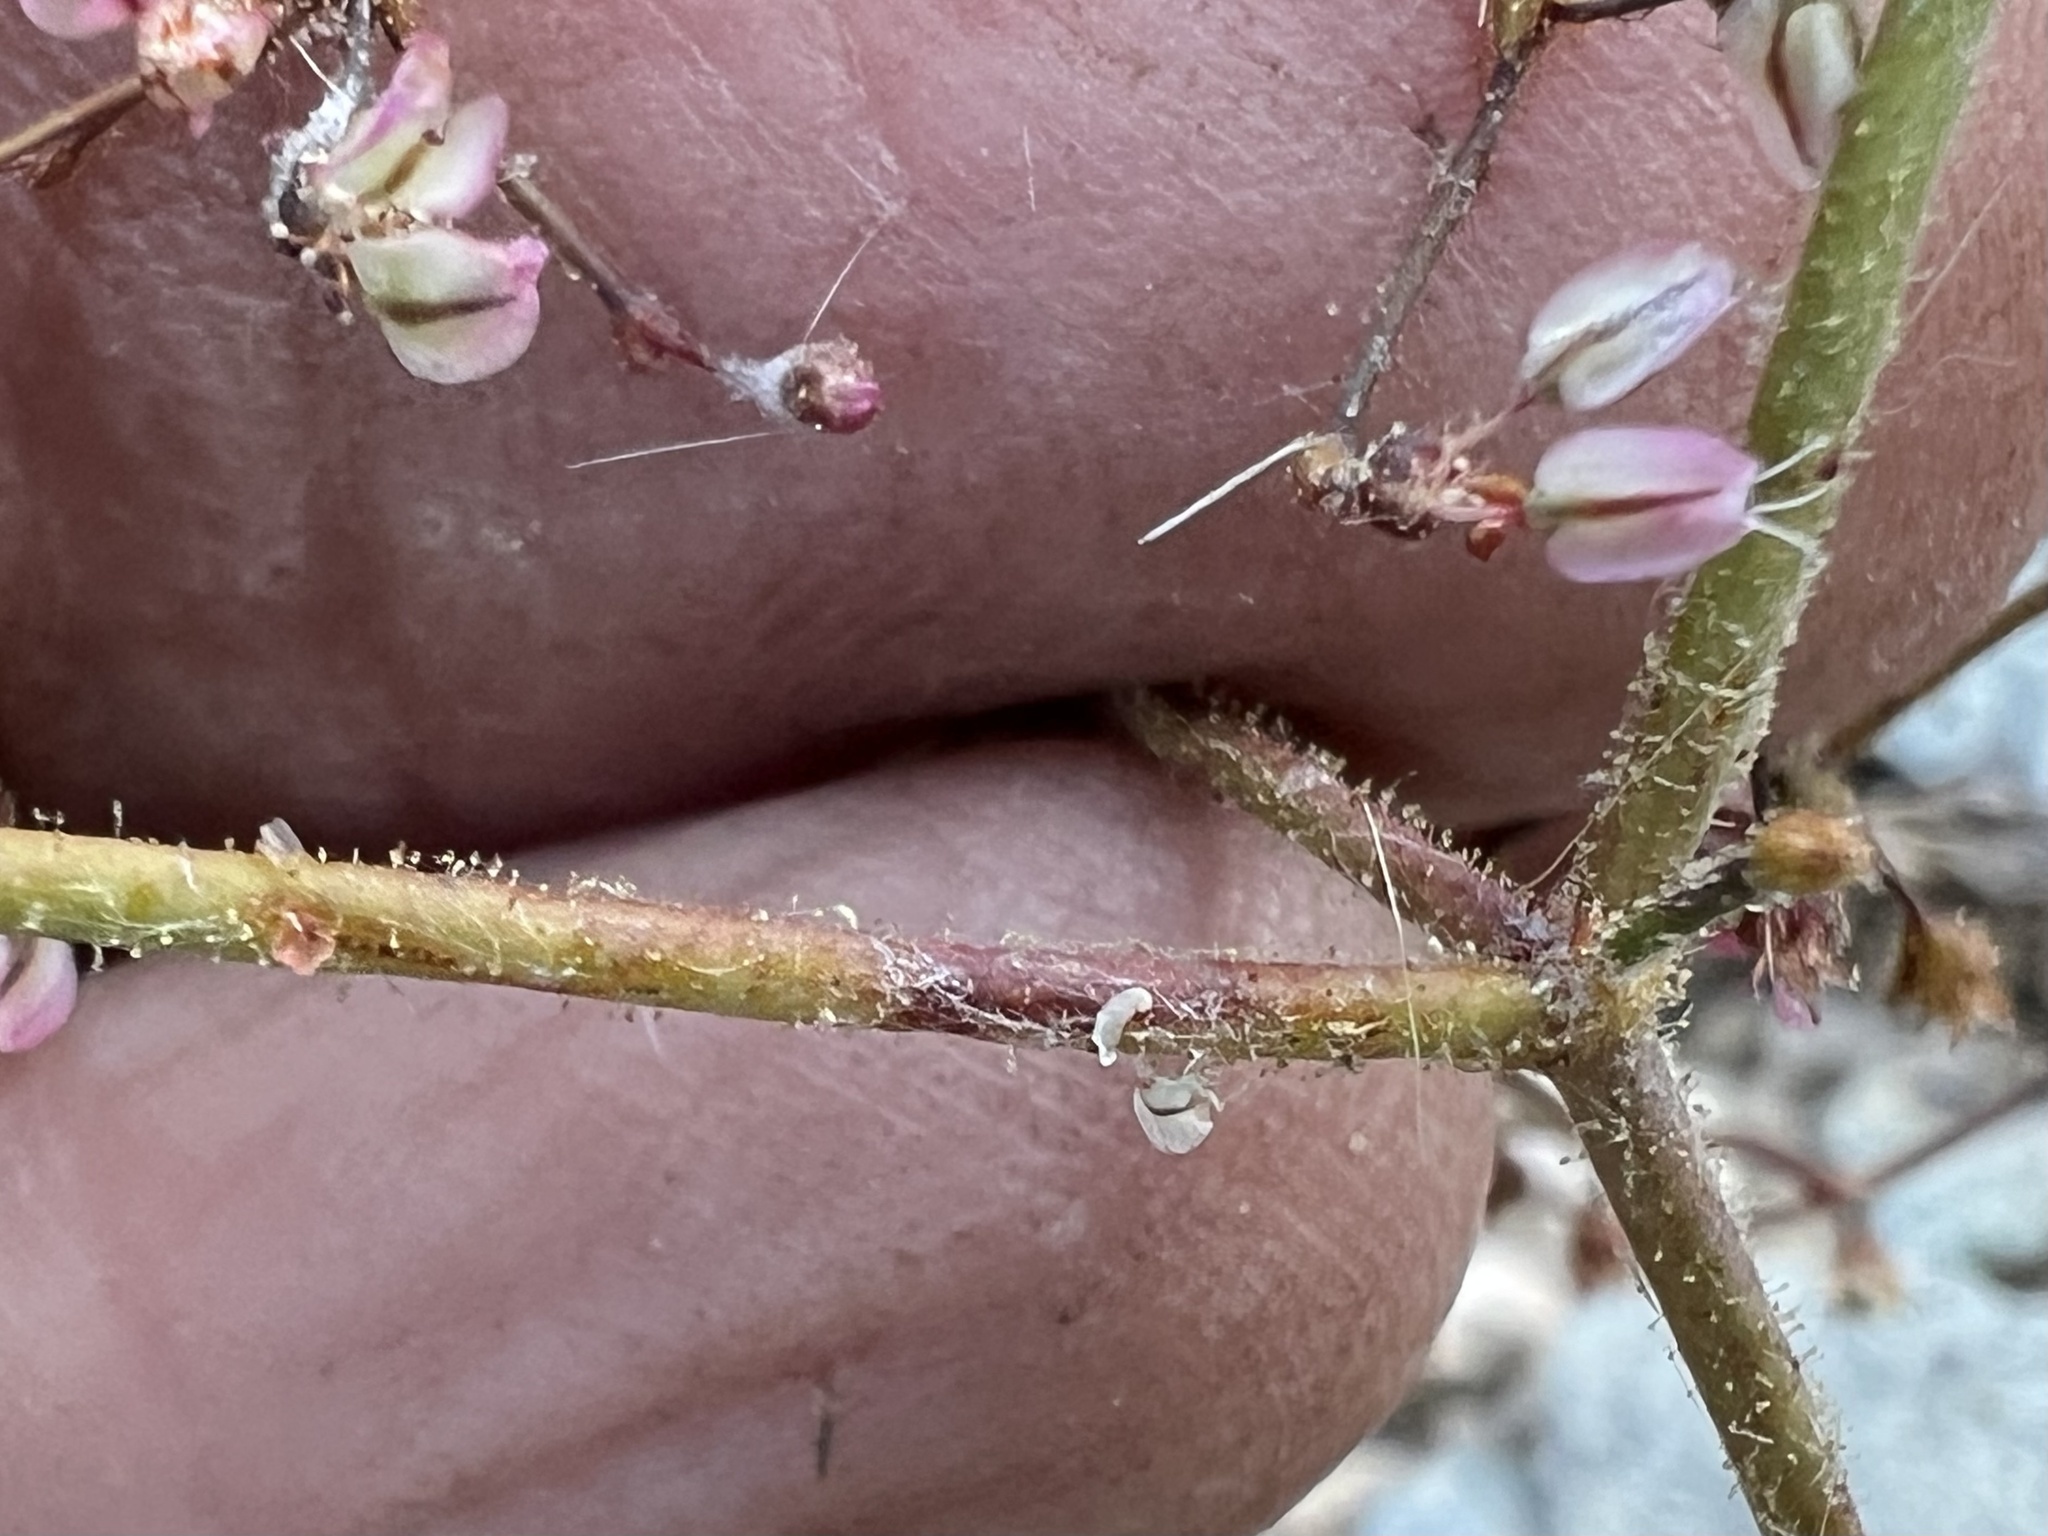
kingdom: Plantae
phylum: Tracheophyta
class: Magnoliopsida
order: Caryophyllales
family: Polygonaceae
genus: Eriogonum
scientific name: Eriogonum brachypodum
